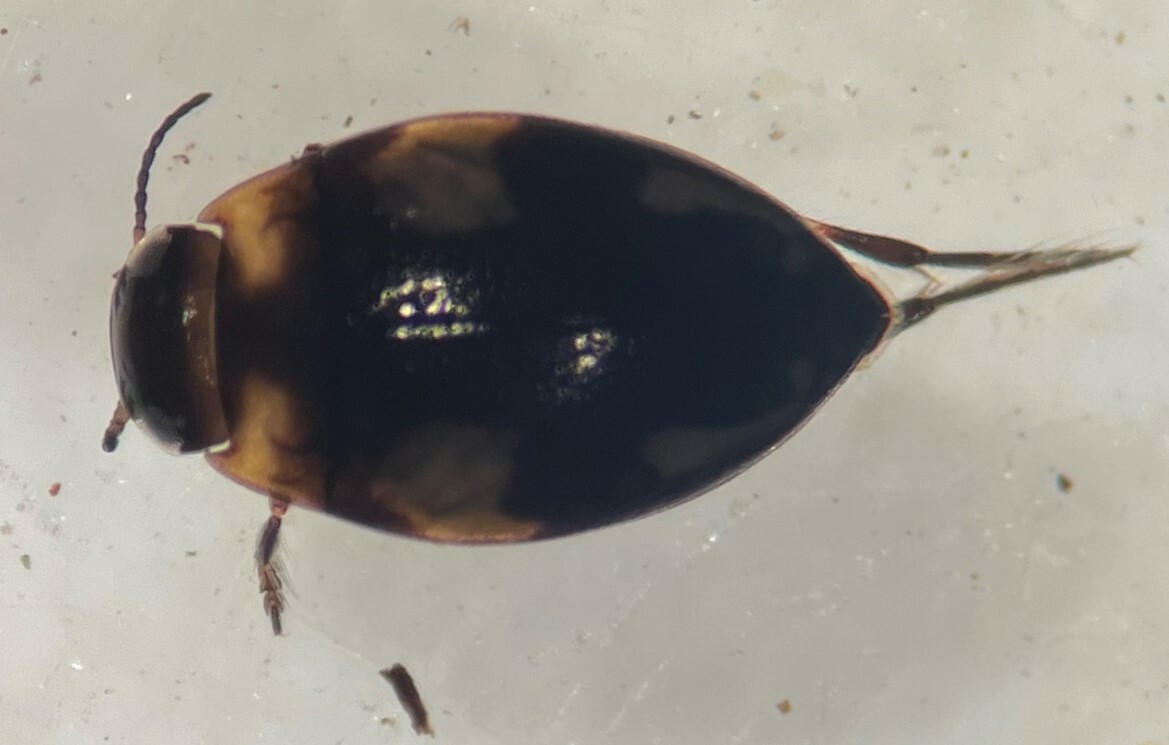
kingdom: Animalia
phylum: Arthropoda
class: Insecta
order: Coleoptera
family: Dytiscidae
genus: Neoclypeodytes
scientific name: Neoclypeodytes fryii
